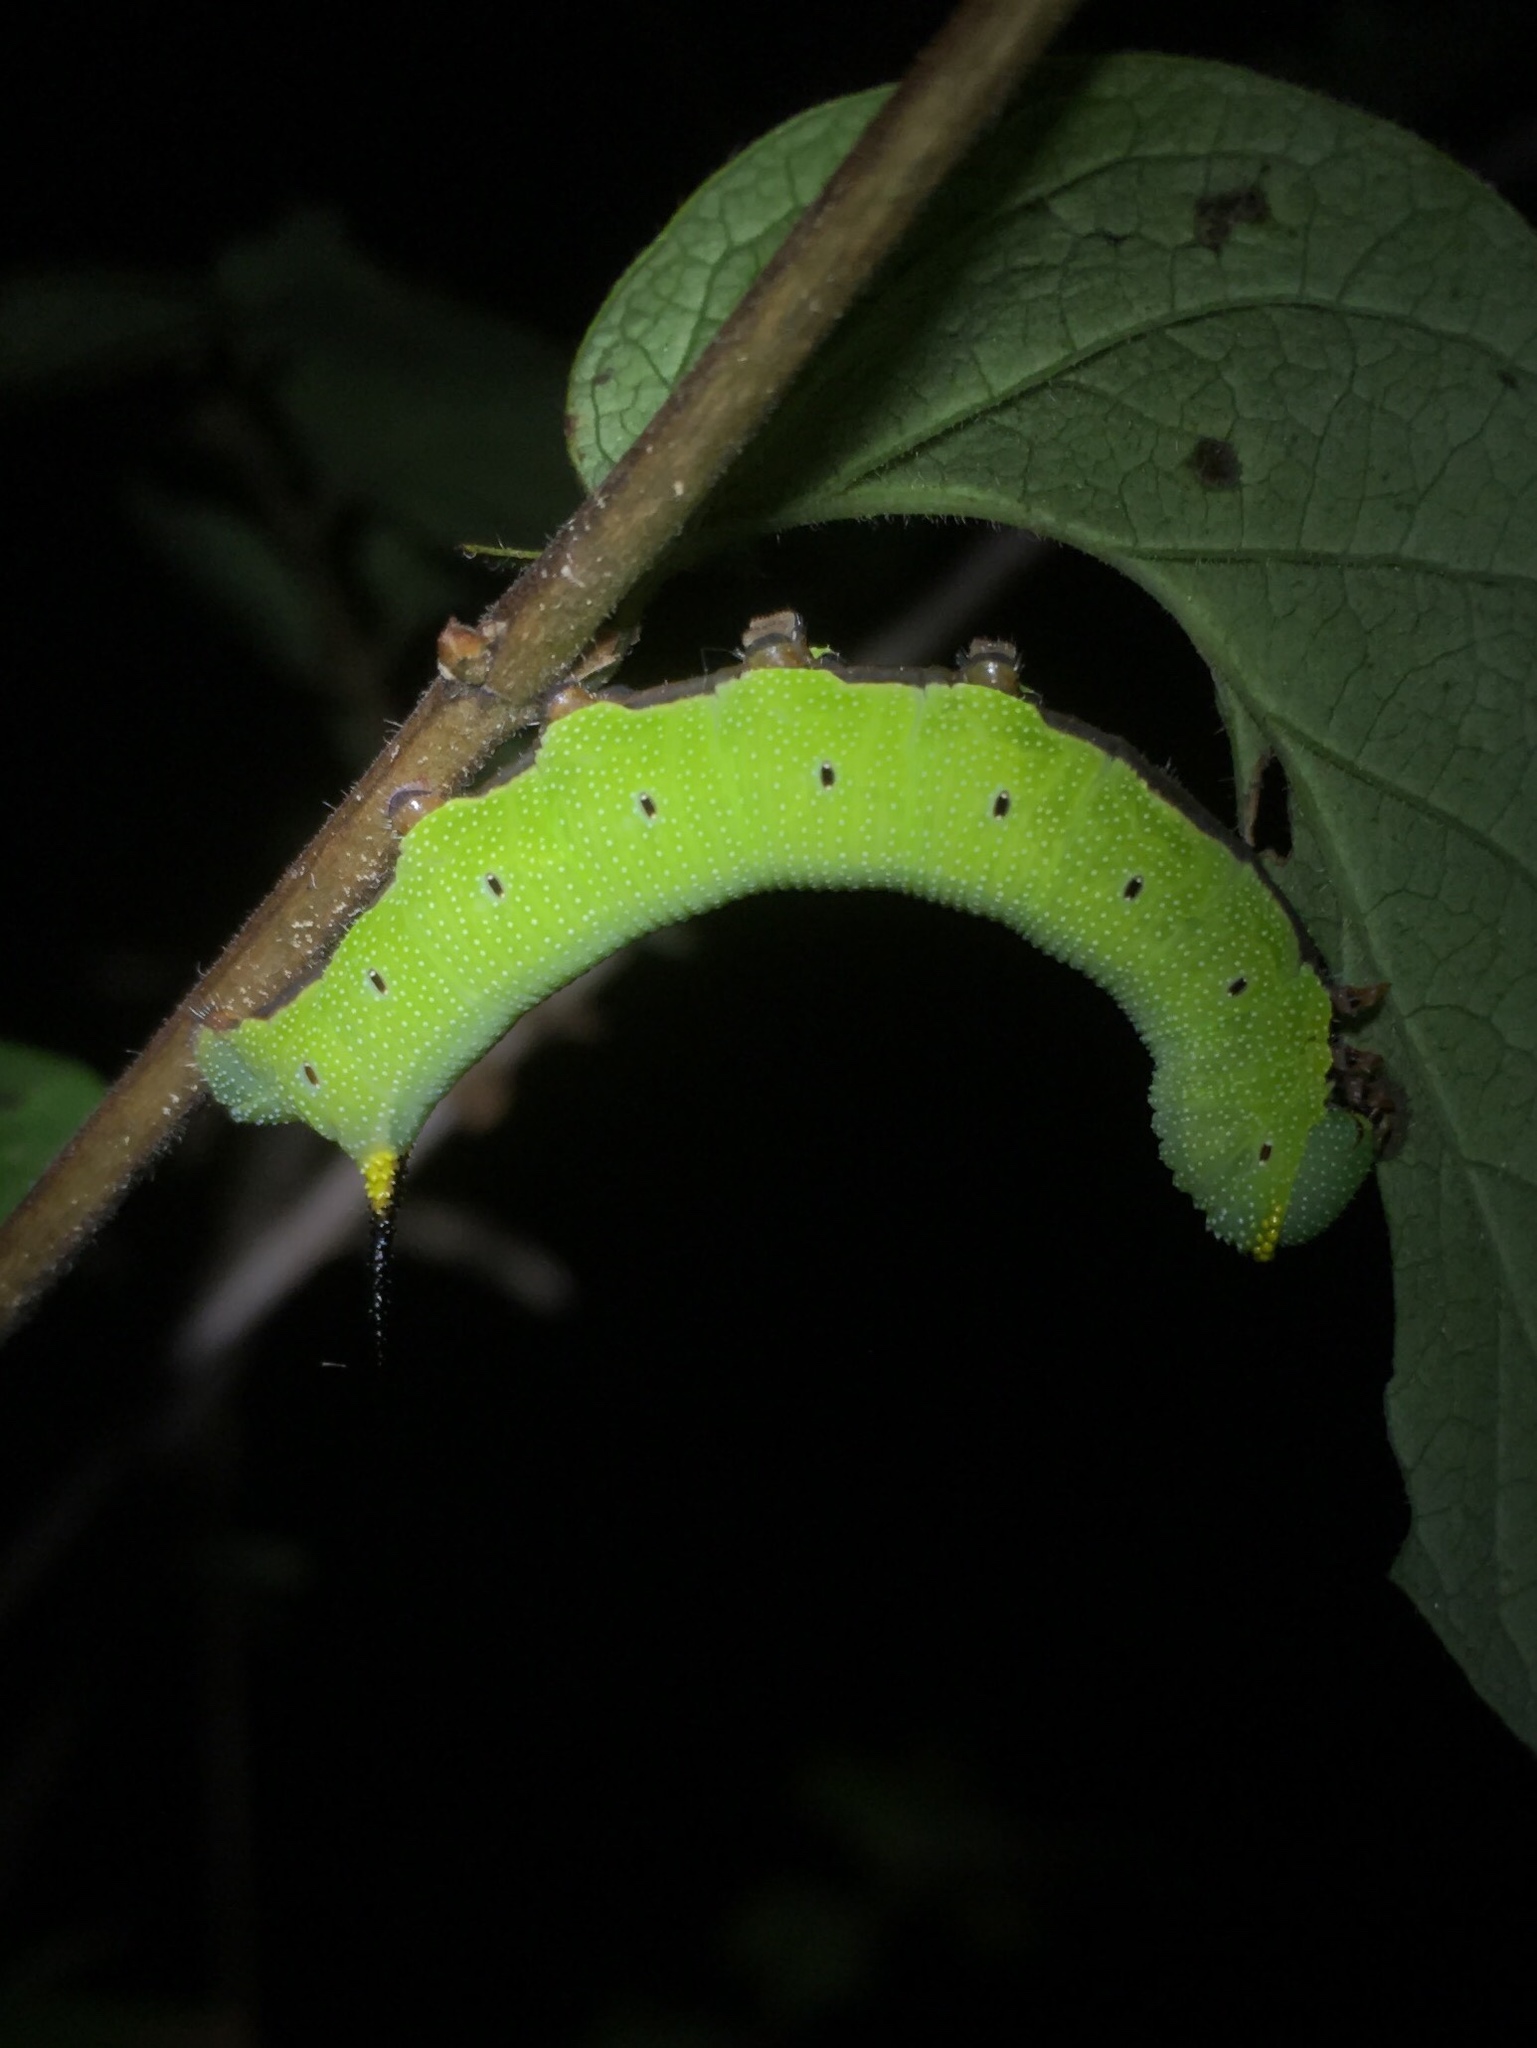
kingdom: Animalia
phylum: Arthropoda
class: Insecta
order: Lepidoptera
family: Sphingidae
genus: Hemaris
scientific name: Hemaris diffinis
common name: Bumblebee moth
